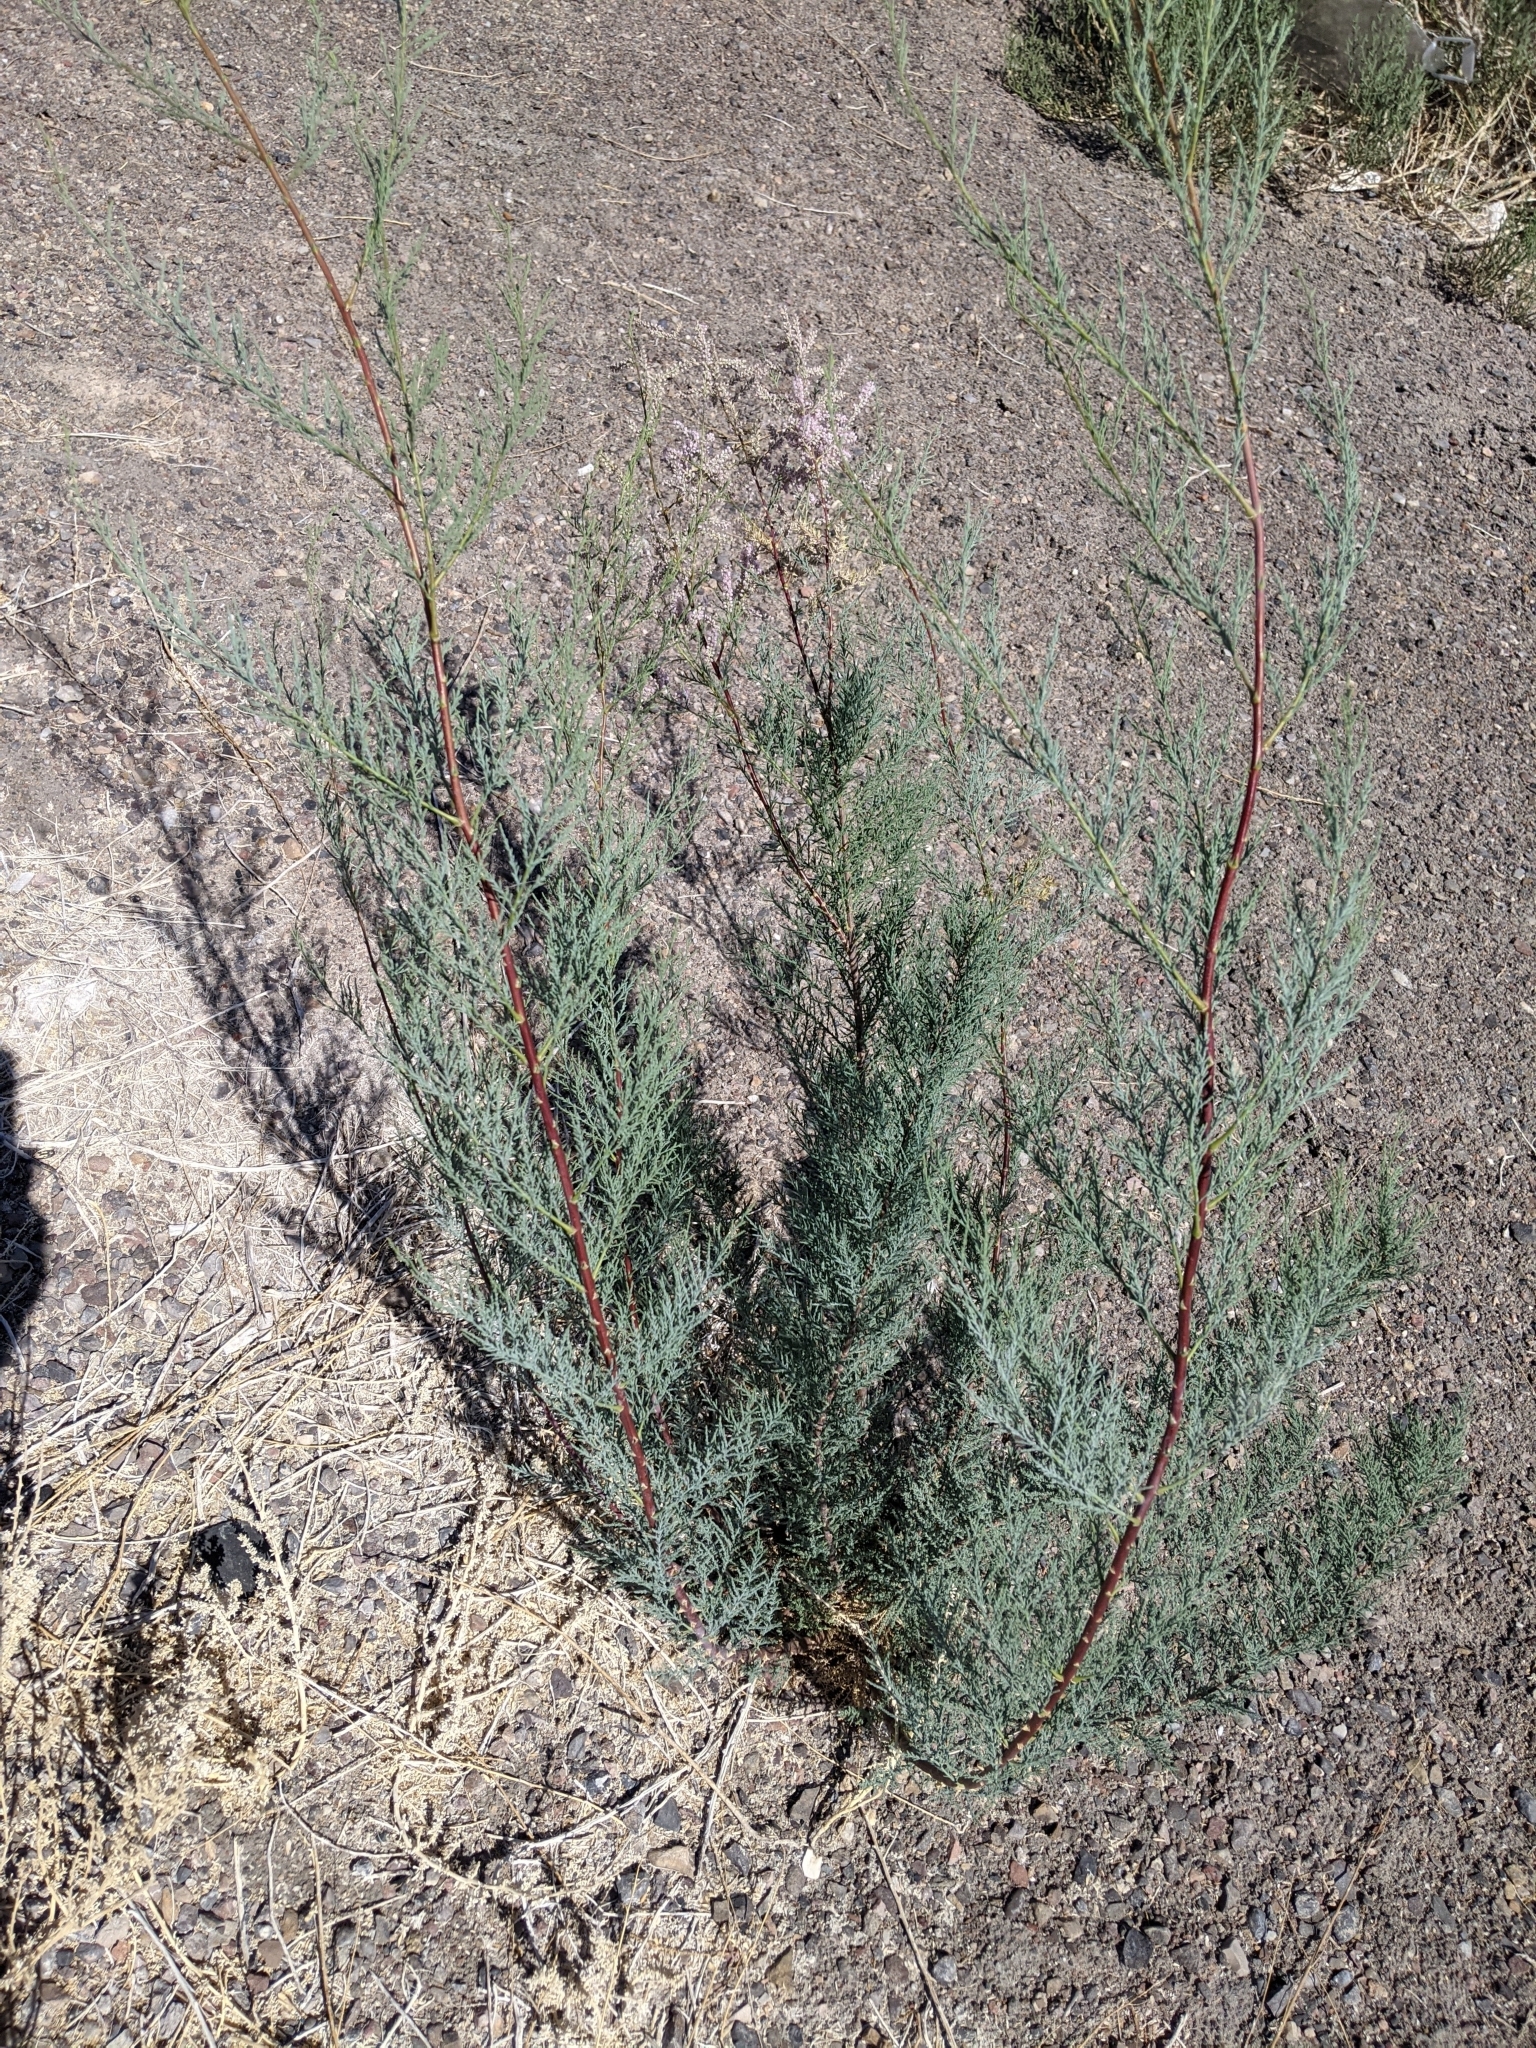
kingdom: Plantae
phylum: Tracheophyta
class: Magnoliopsida
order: Caryophyllales
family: Tamaricaceae
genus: Tamarix
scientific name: Tamarix
